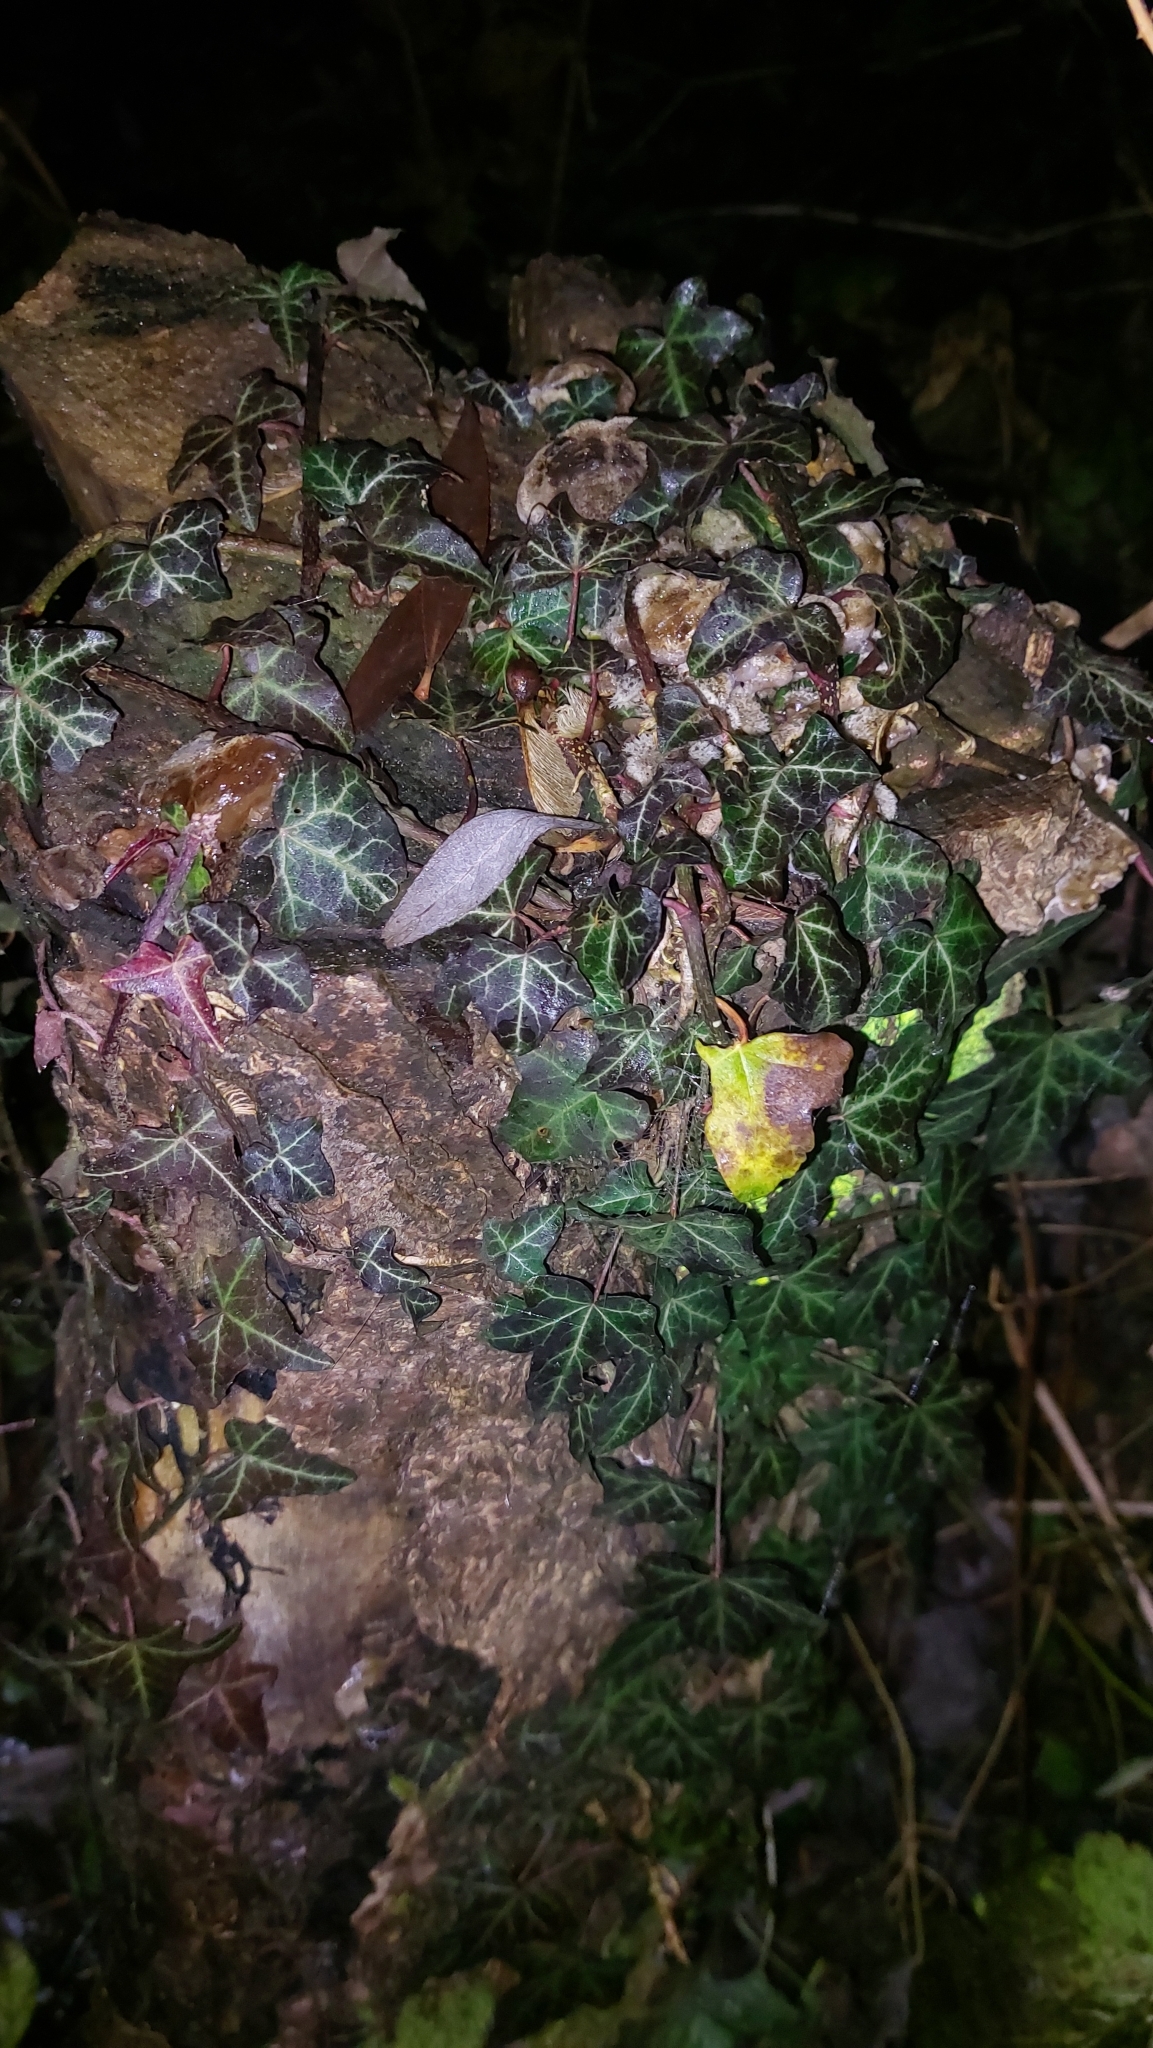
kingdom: Plantae
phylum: Tracheophyta
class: Magnoliopsida
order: Apiales
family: Araliaceae
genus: Hedera
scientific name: Hedera helix
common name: Ivy
